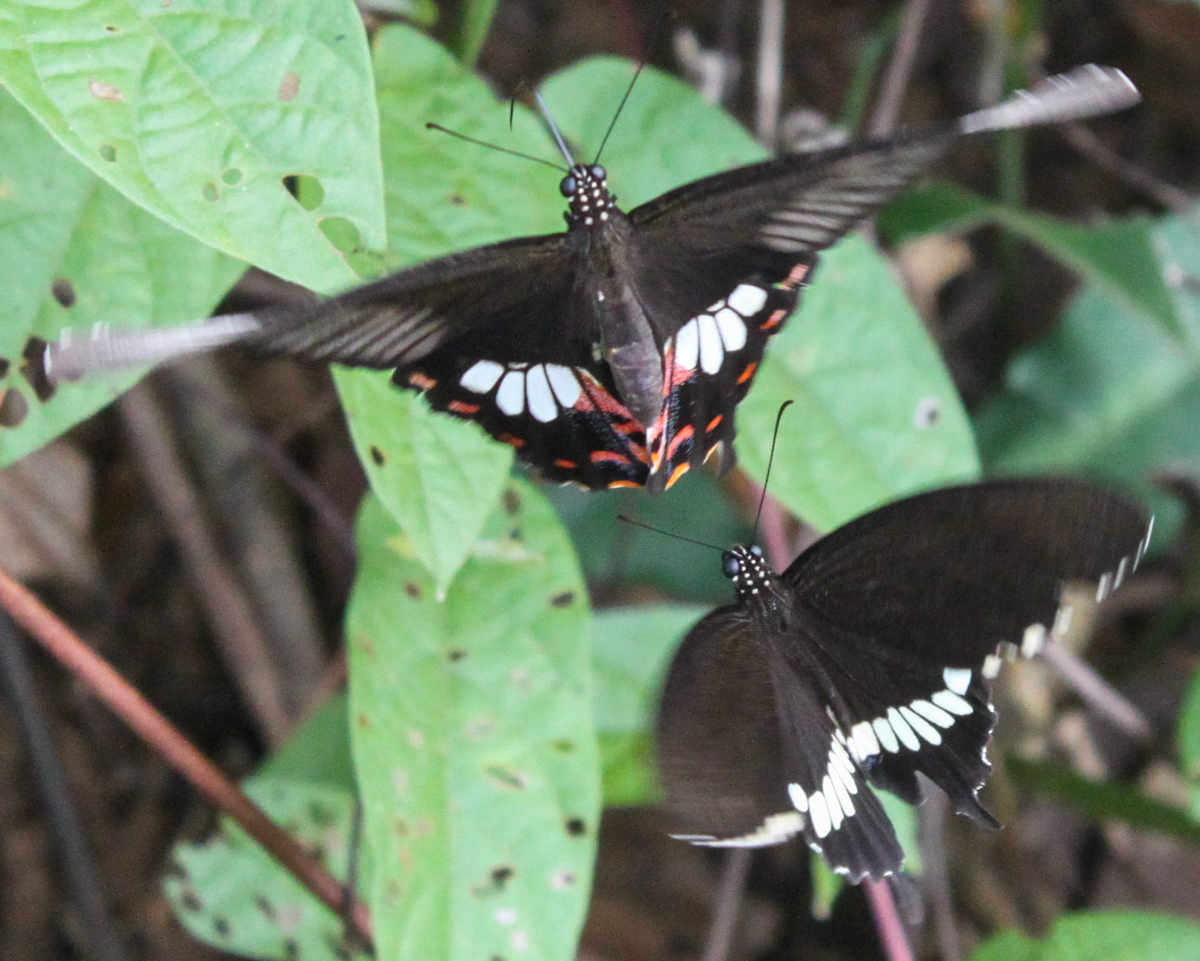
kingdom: Animalia
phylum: Arthropoda
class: Insecta
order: Lepidoptera
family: Papilionidae
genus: Papilio
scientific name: Papilio polytes
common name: Common mormon
